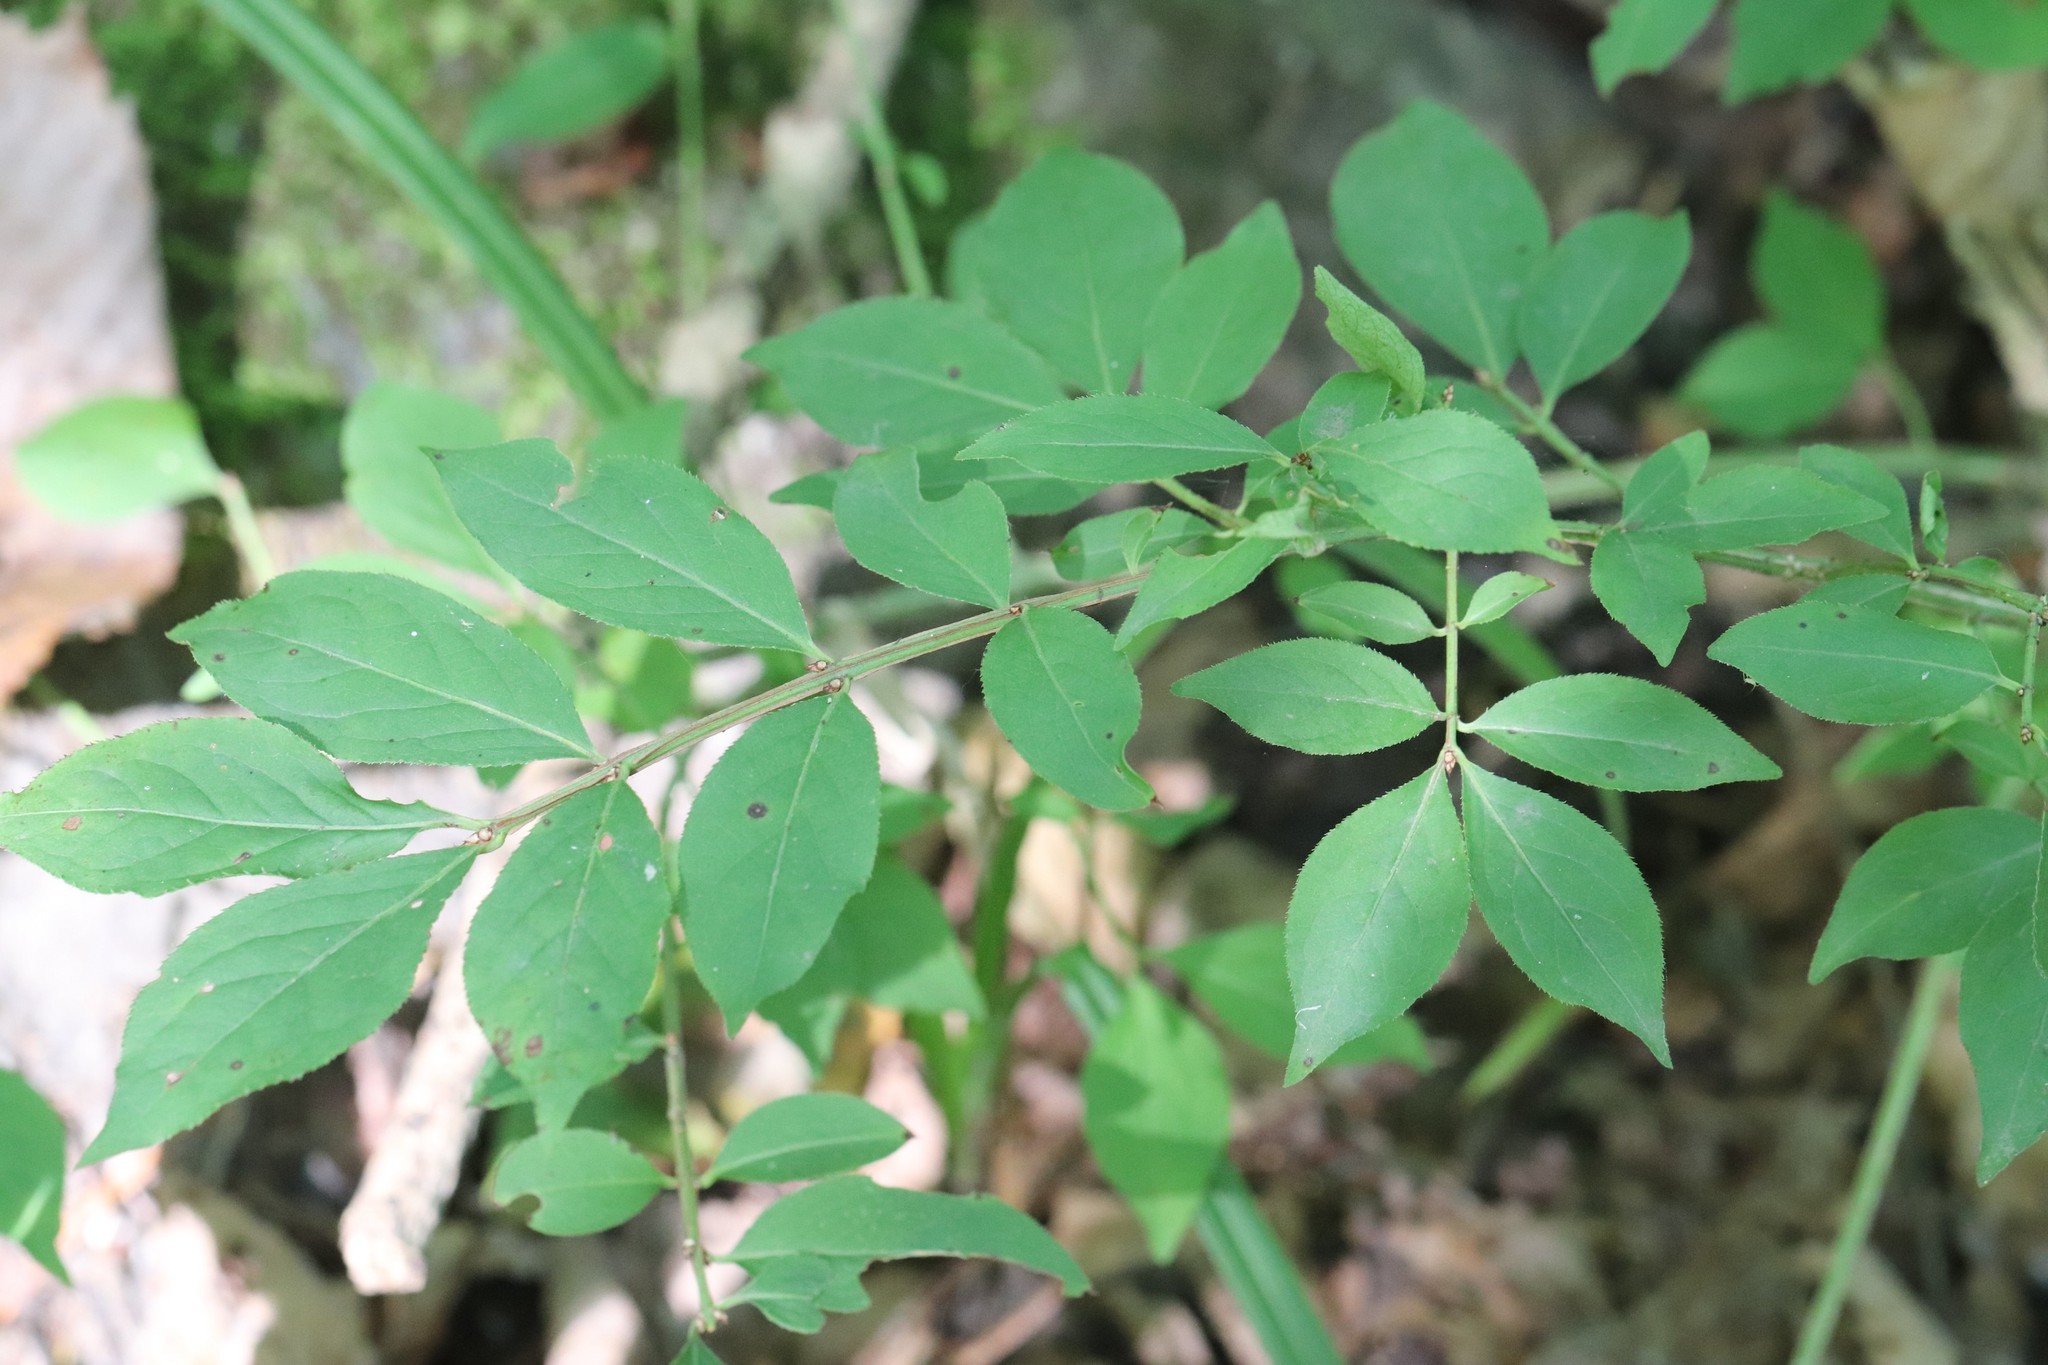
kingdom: Plantae
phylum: Tracheophyta
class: Magnoliopsida
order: Celastrales
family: Celastraceae
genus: Euonymus
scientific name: Euonymus alatus
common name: Winged euonymus
